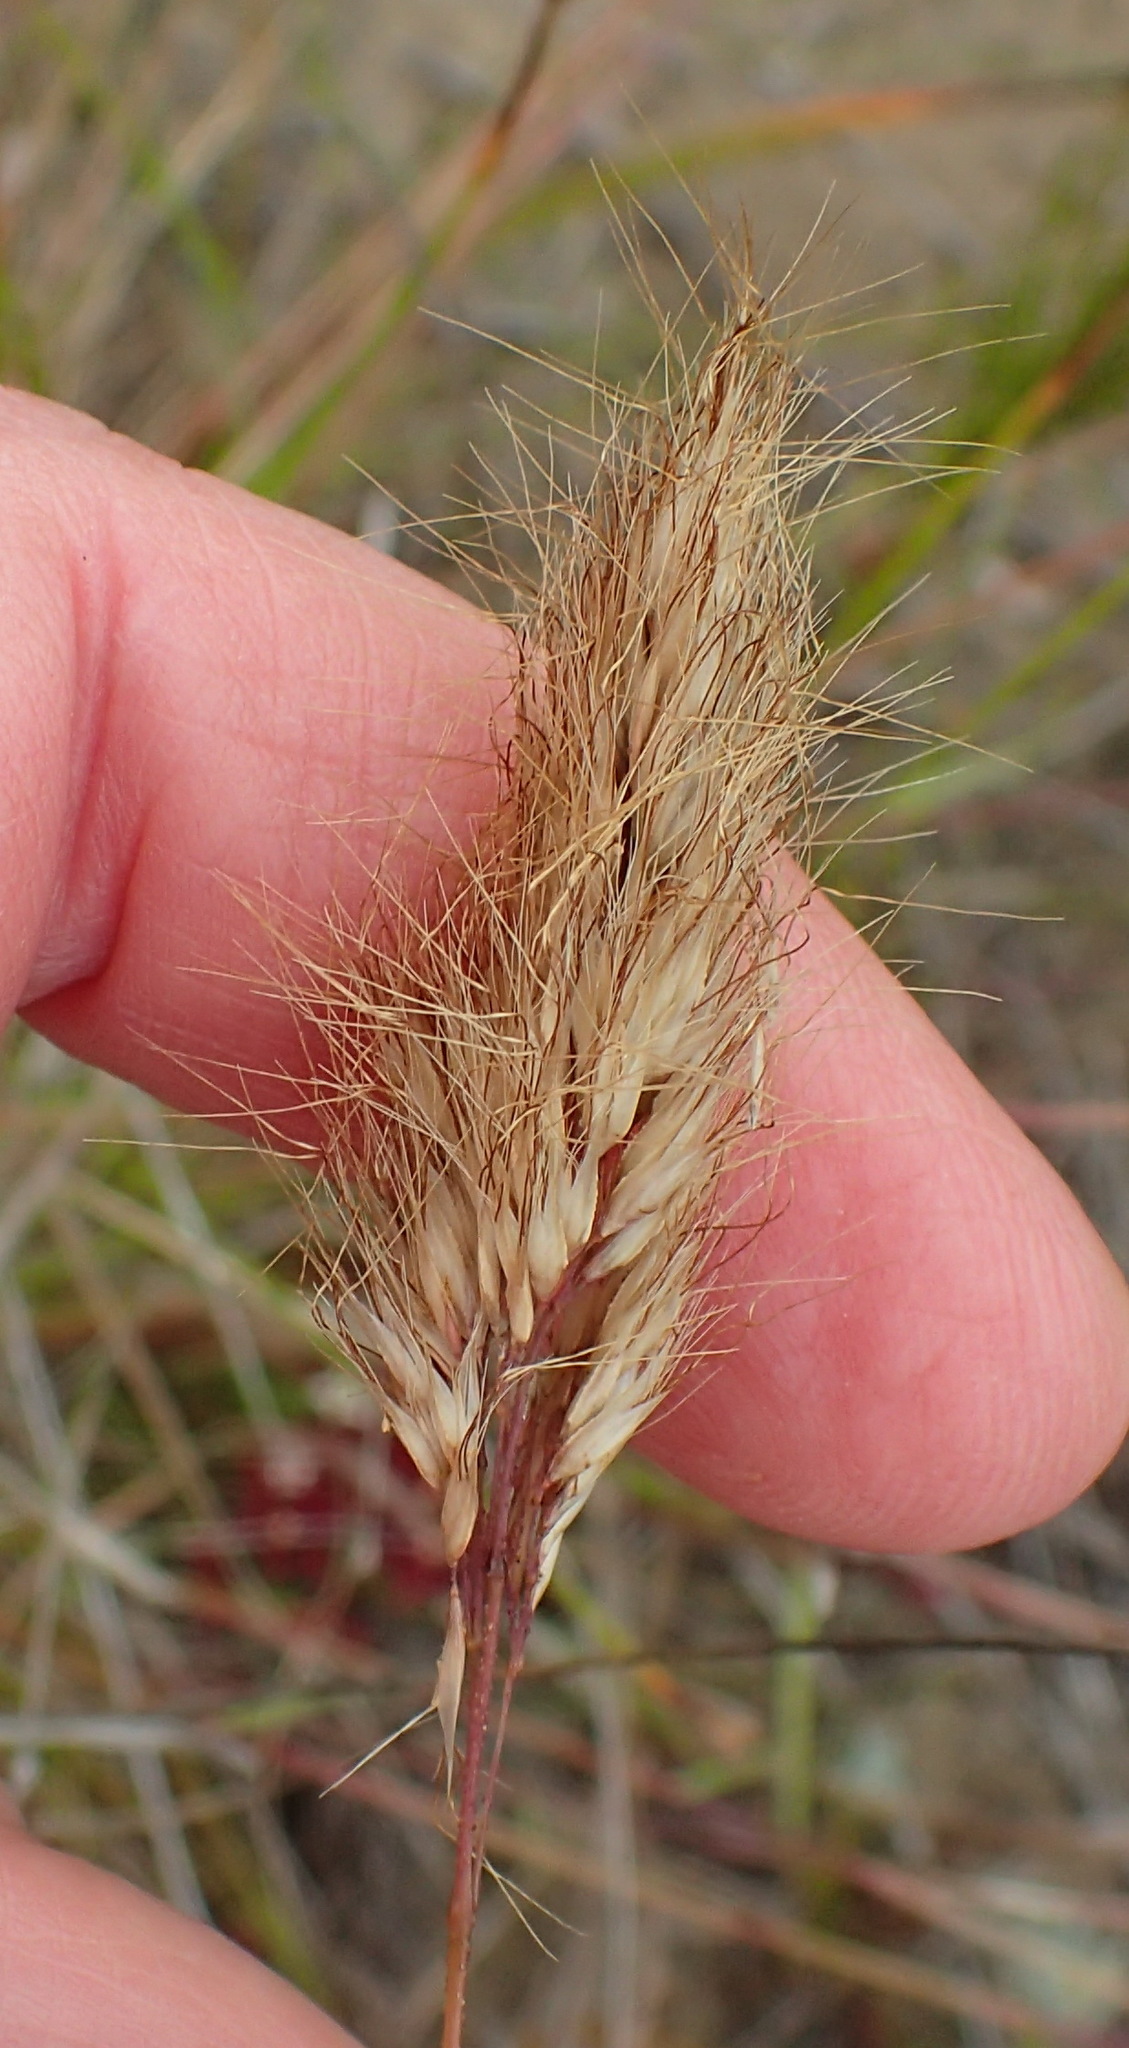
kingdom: Plantae
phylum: Tracheophyta
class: Liliopsida
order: Poales
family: Poaceae
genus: Pentameris
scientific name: Pentameris calcicola
